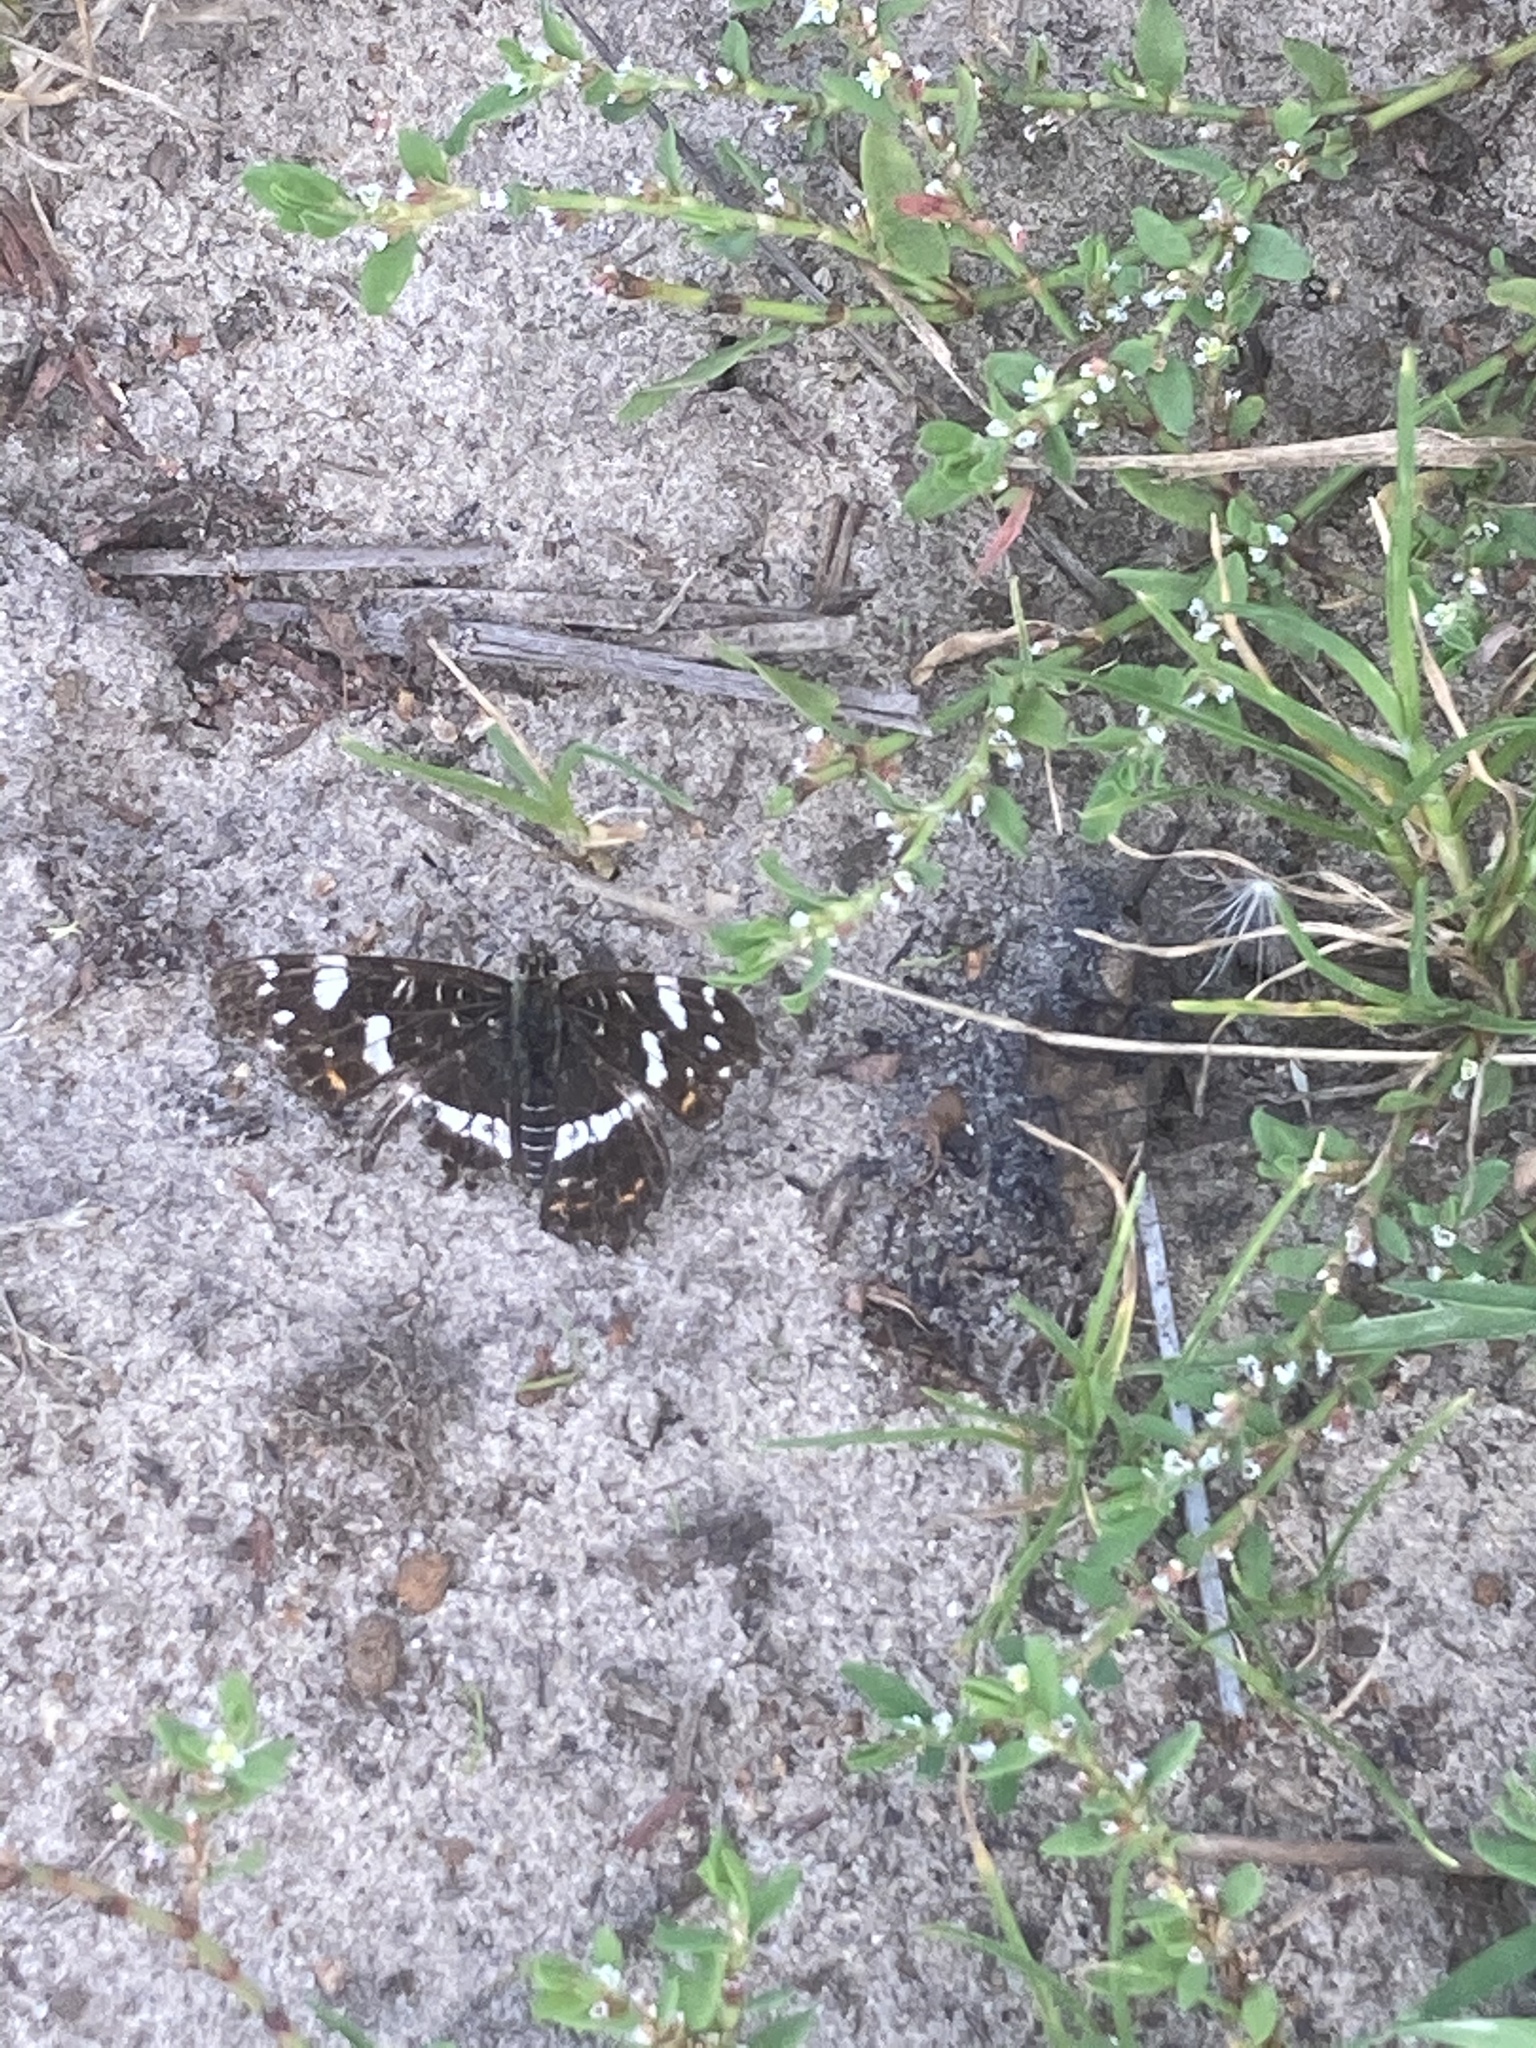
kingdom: Animalia
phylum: Arthropoda
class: Insecta
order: Lepidoptera
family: Nymphalidae
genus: Araschnia
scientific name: Araschnia levana
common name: Map butterfly
